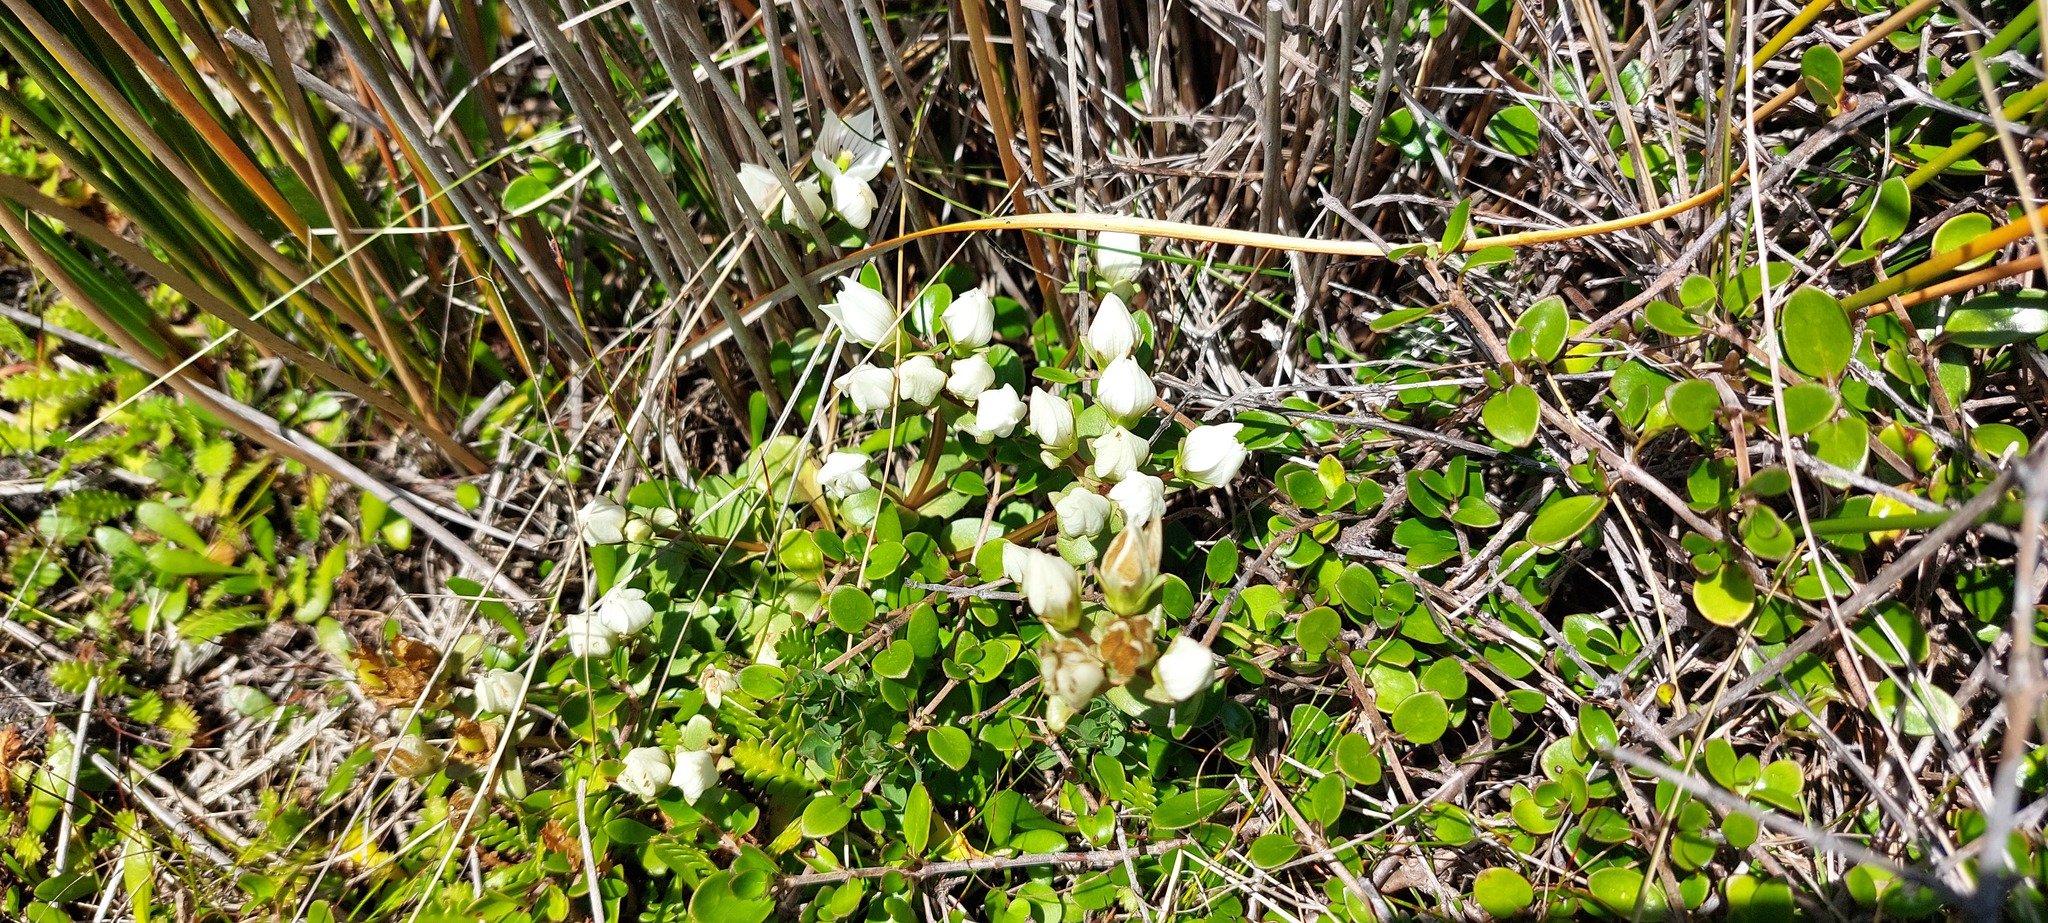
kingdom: Plantae
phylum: Tracheophyta
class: Magnoliopsida
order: Gentianales
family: Gentianaceae
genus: Gentianella
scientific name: Gentianella stevenii
